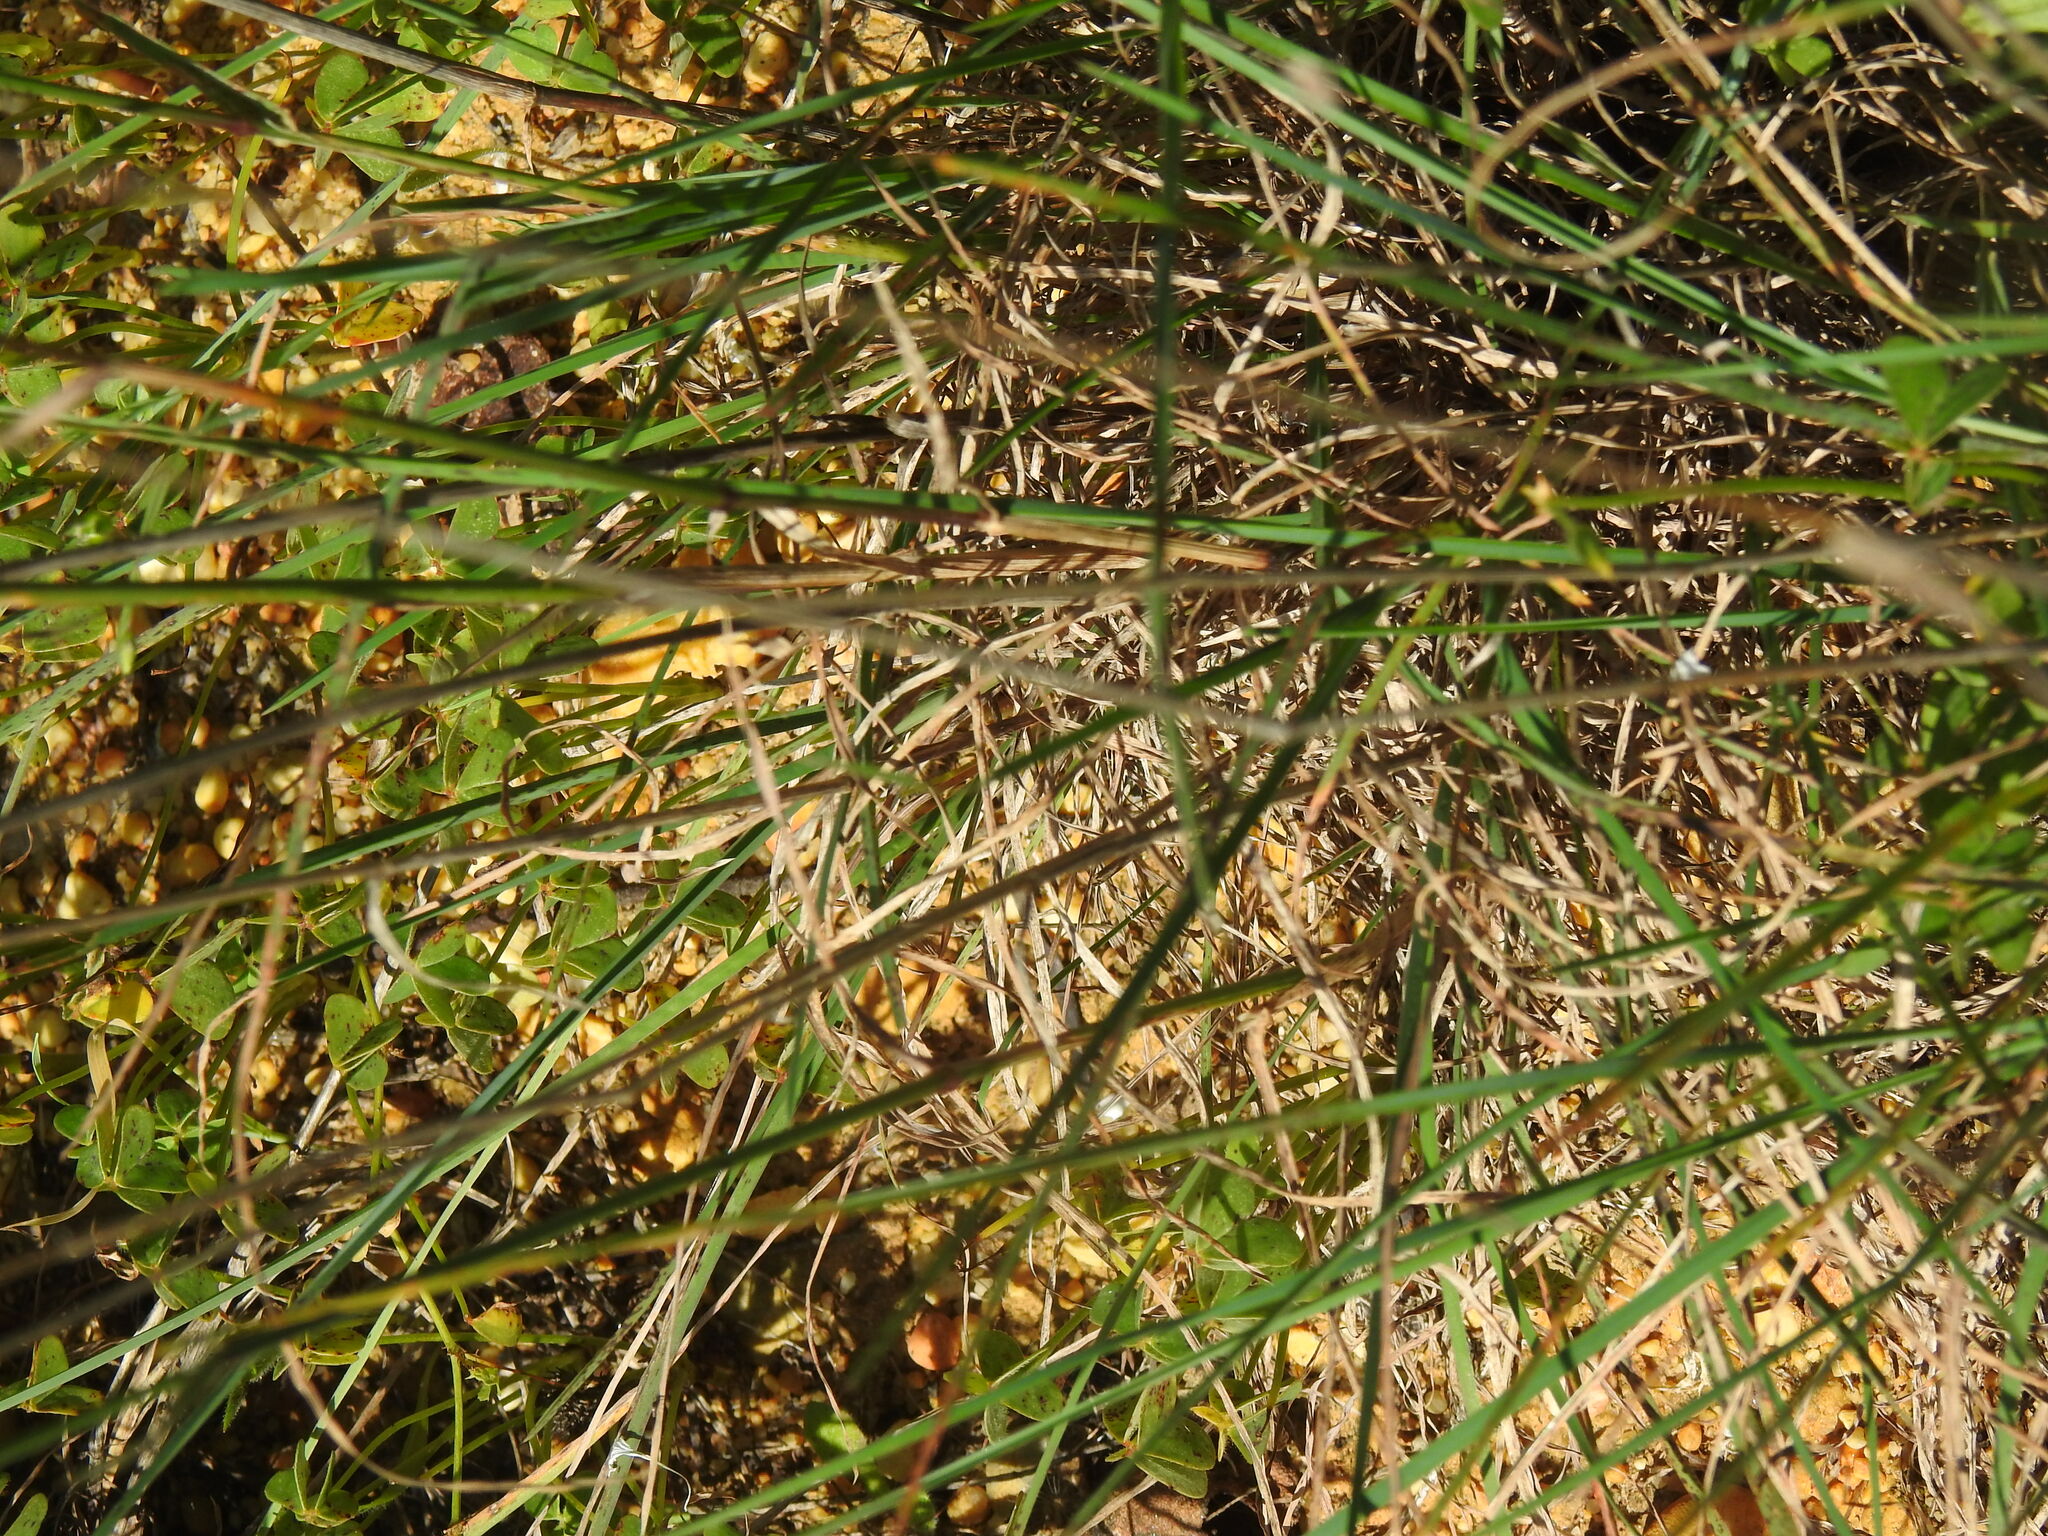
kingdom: Plantae
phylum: Tracheophyta
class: Liliopsida
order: Poales
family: Poaceae
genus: Dactylis
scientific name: Dactylis glomerata
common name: Orchardgrass
